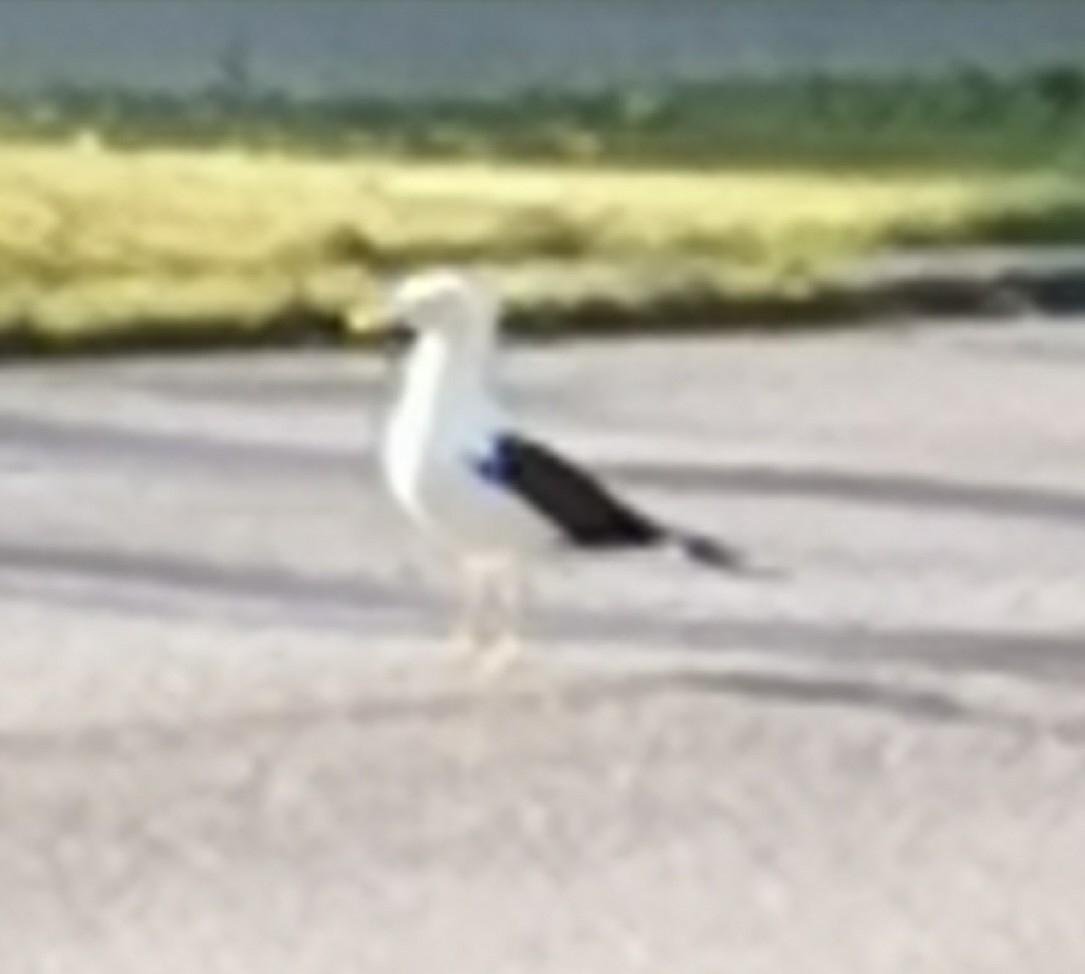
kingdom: Animalia
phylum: Chordata
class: Aves
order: Charadriiformes
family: Laridae
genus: Larus
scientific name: Larus fuscus
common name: Lesser black-backed gull
